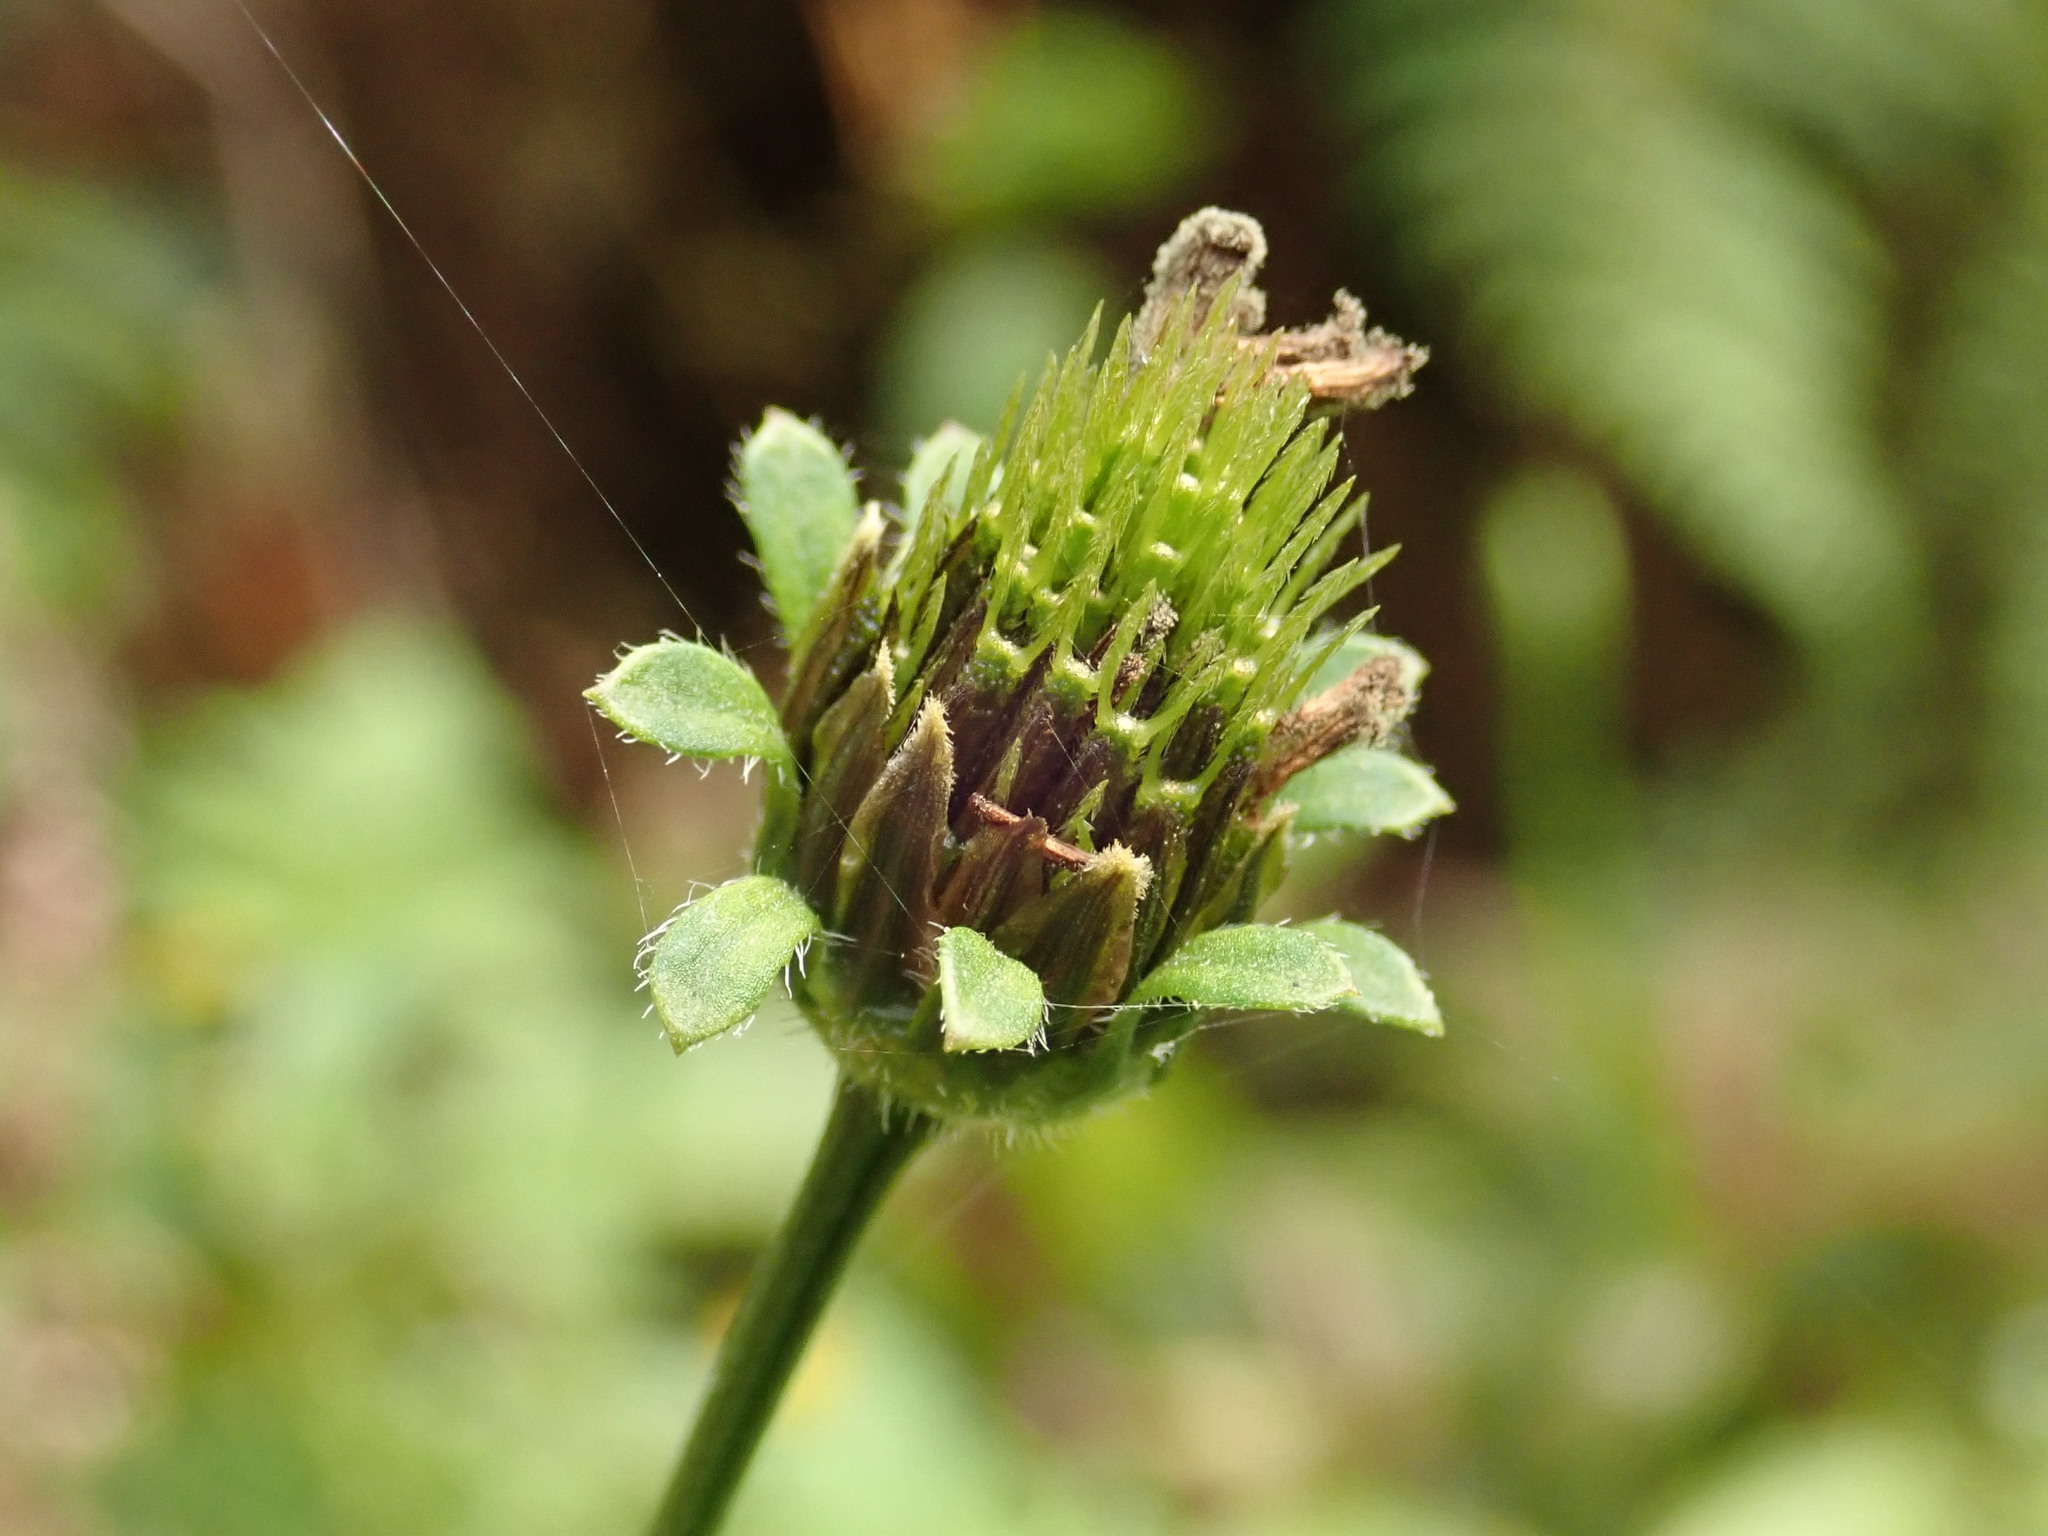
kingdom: Plantae
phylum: Tracheophyta
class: Magnoliopsida
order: Asterales
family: Asteraceae
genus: Bidens
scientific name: Bidens pilosa
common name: Black-jack
